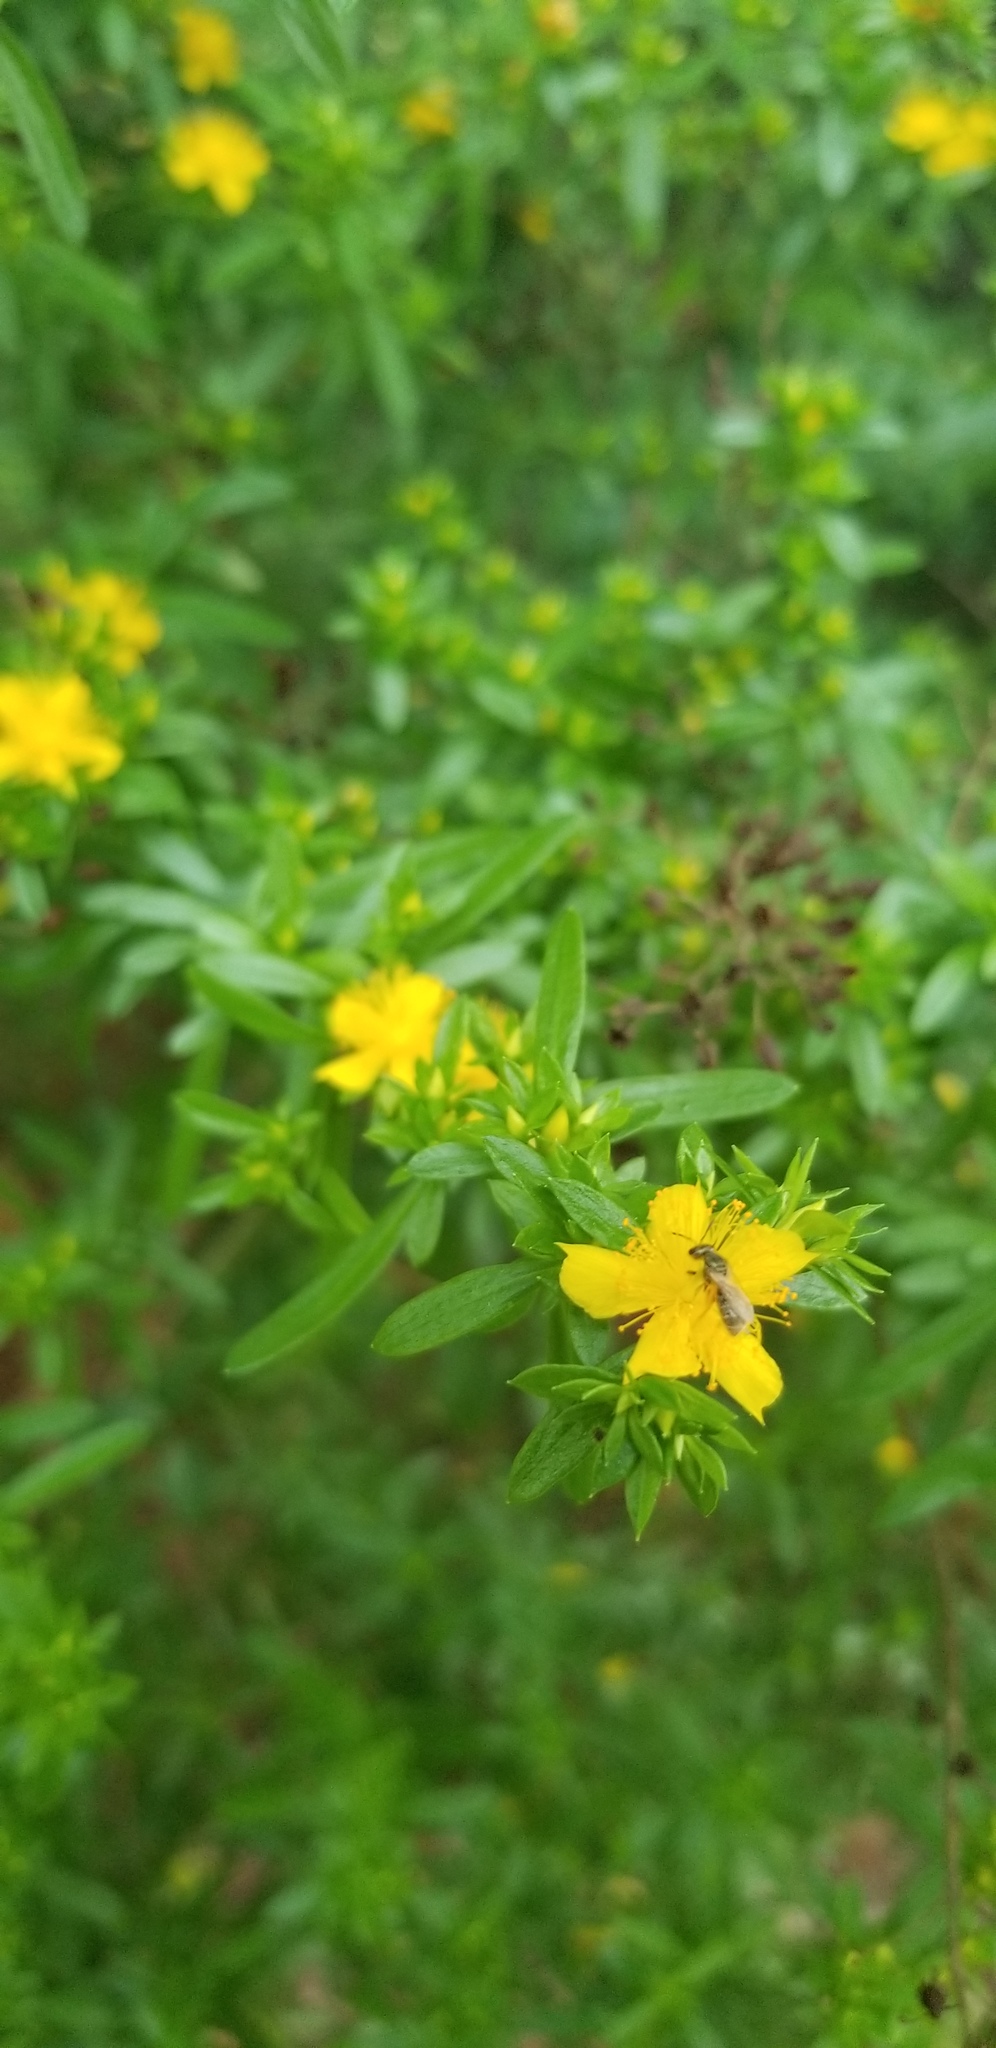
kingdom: Plantae
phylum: Tracheophyta
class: Magnoliopsida
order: Malpighiales
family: Hypericaceae
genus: Hypericum
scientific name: Hypericum galioides
